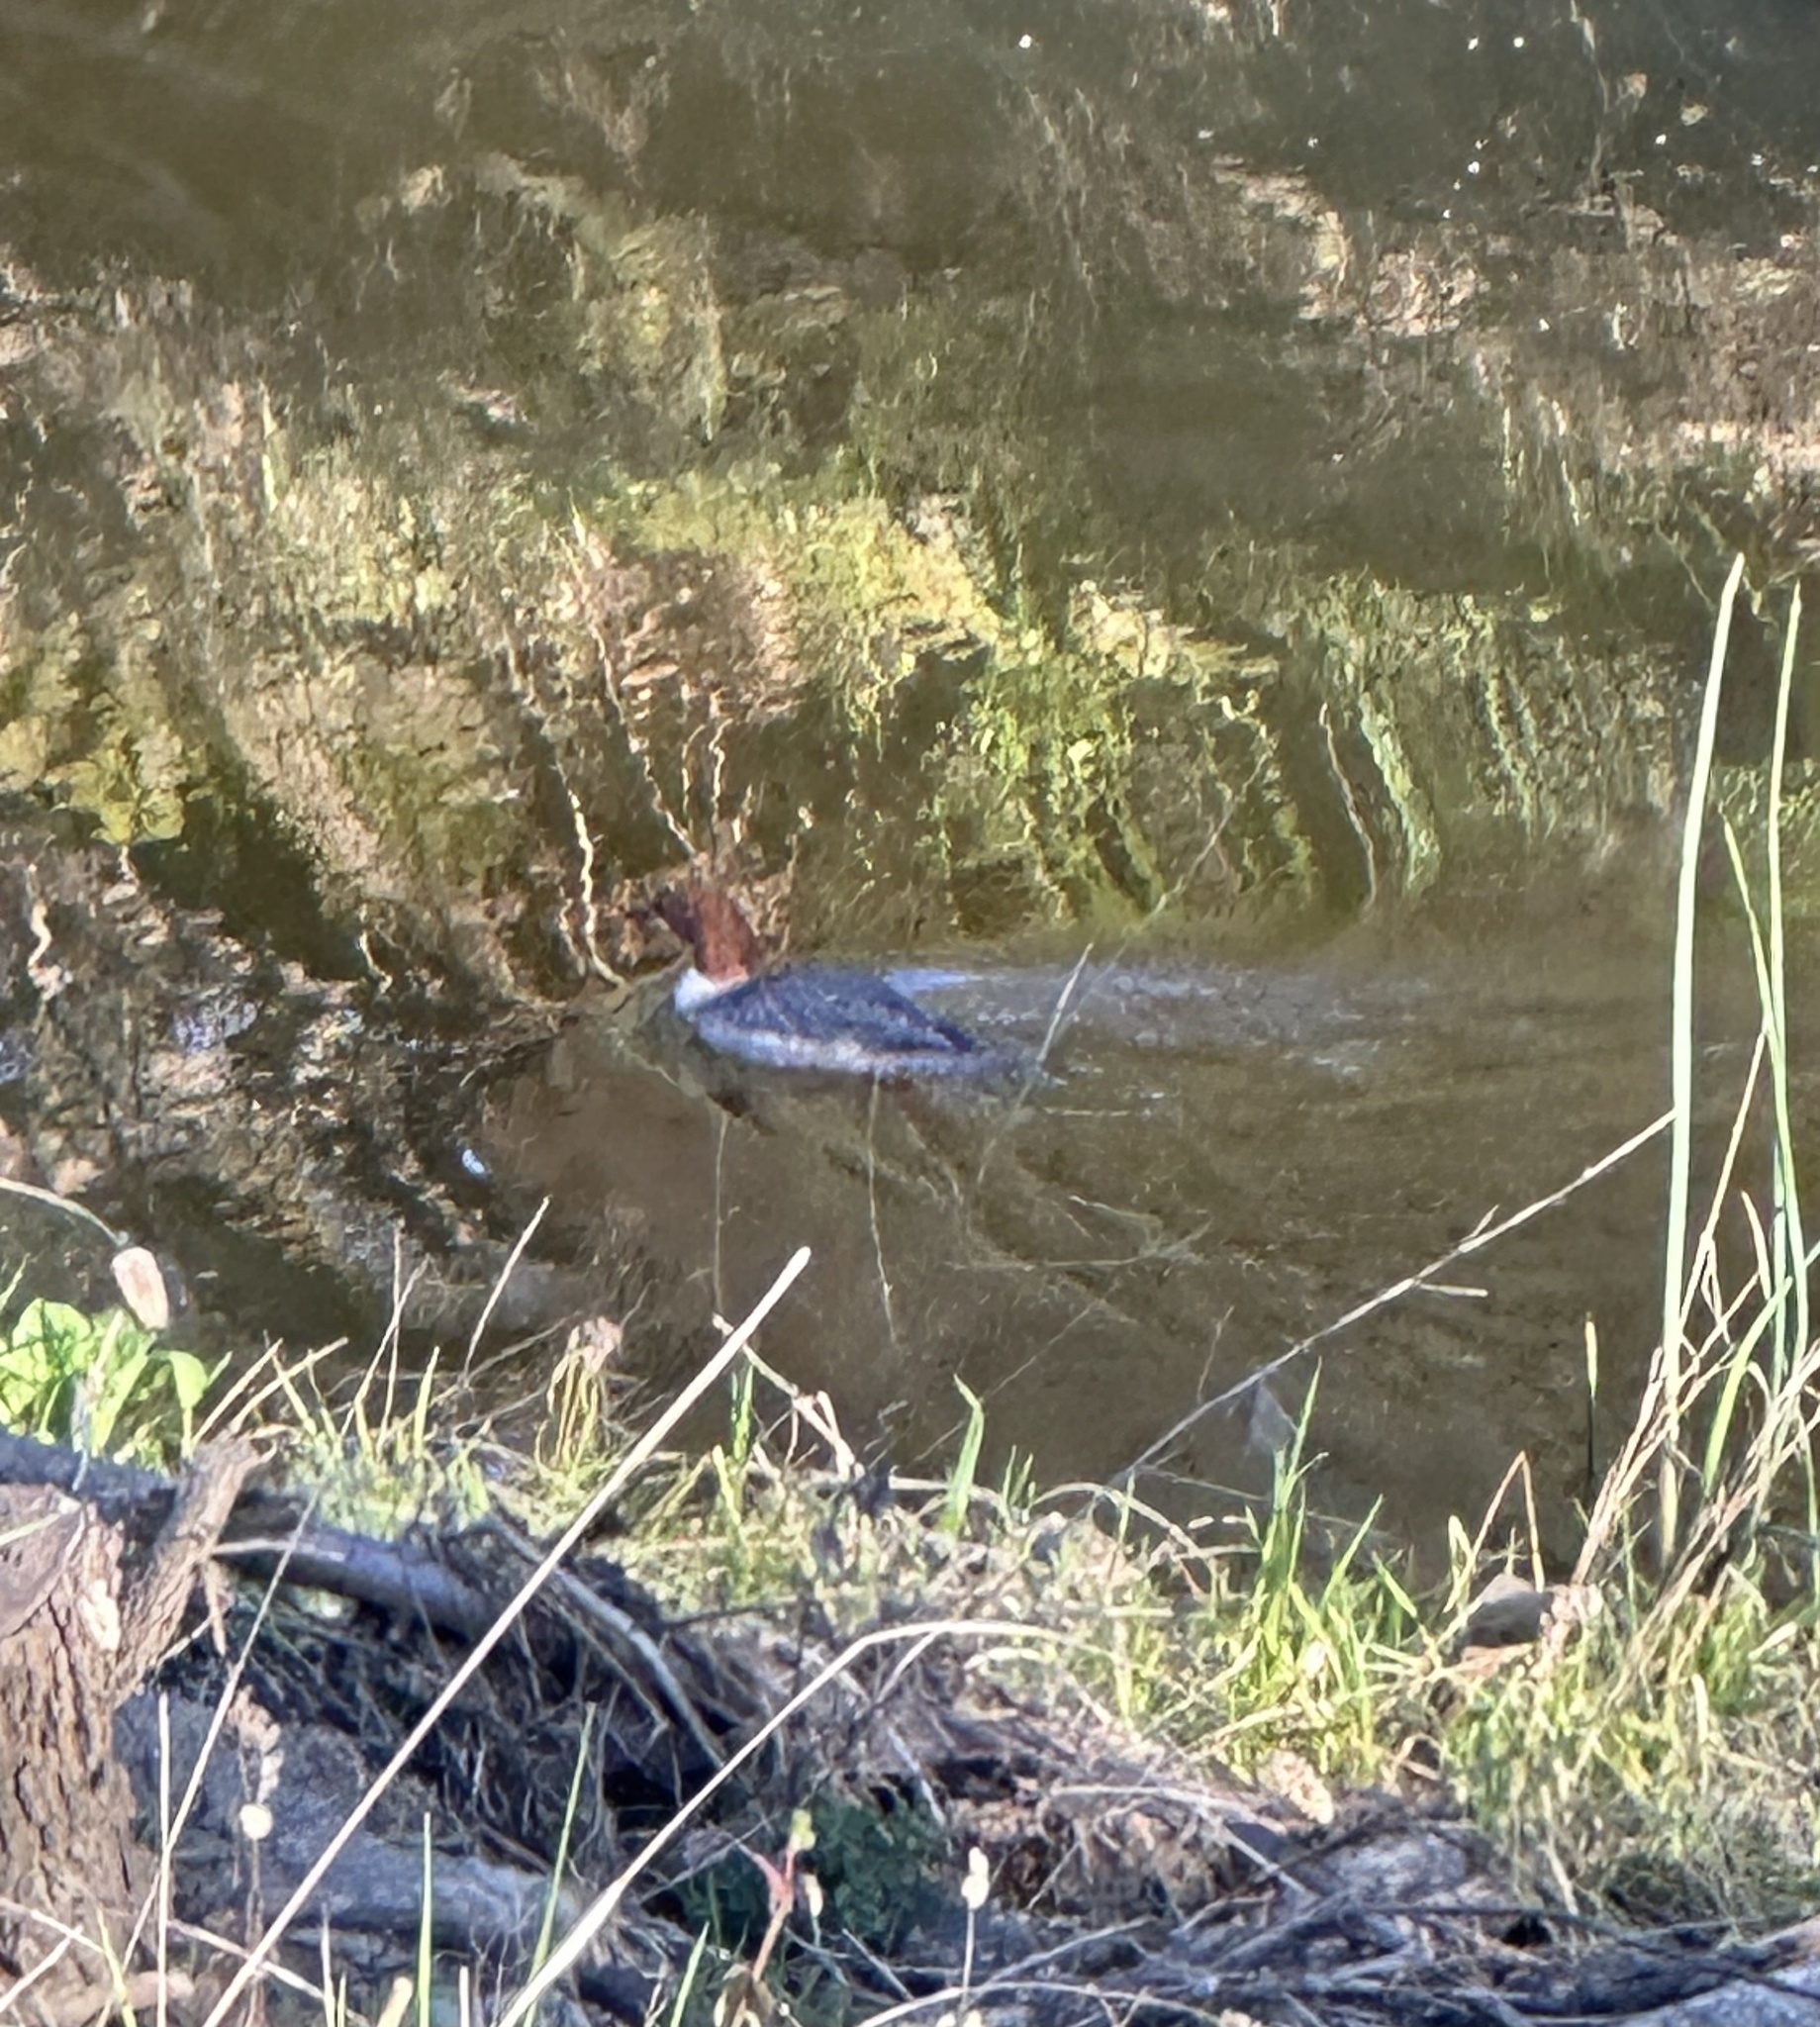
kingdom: Animalia
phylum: Chordata
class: Aves
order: Anseriformes
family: Anatidae
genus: Mergus
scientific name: Mergus merganser
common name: Common merganser
